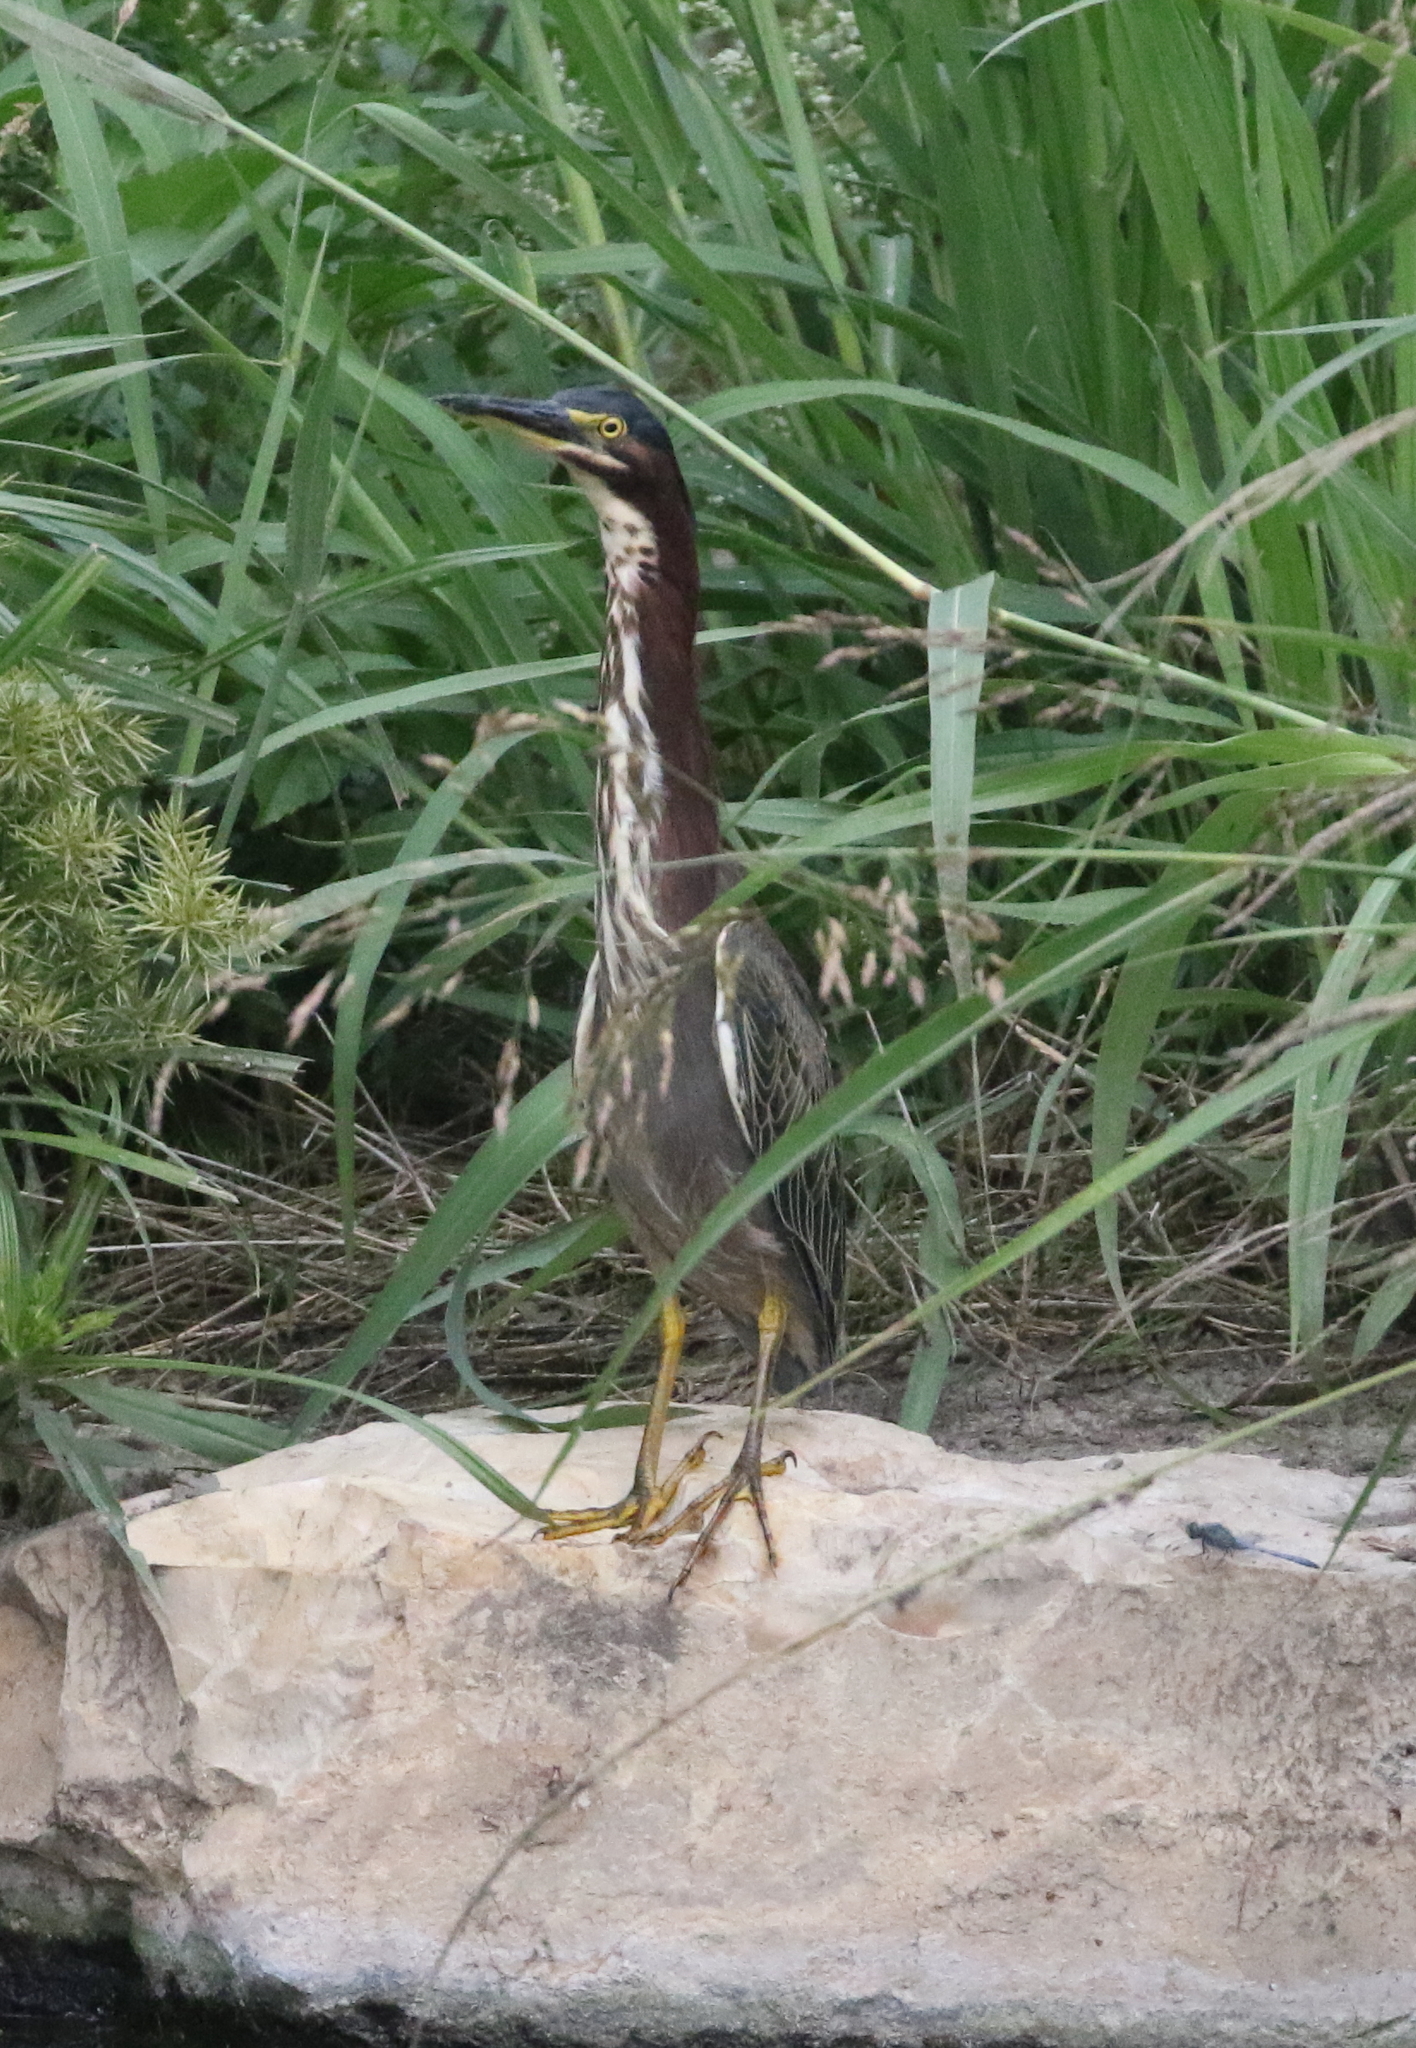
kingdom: Animalia
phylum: Chordata
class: Aves
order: Pelecaniformes
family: Ardeidae
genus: Butorides
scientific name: Butorides virescens
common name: Green heron
